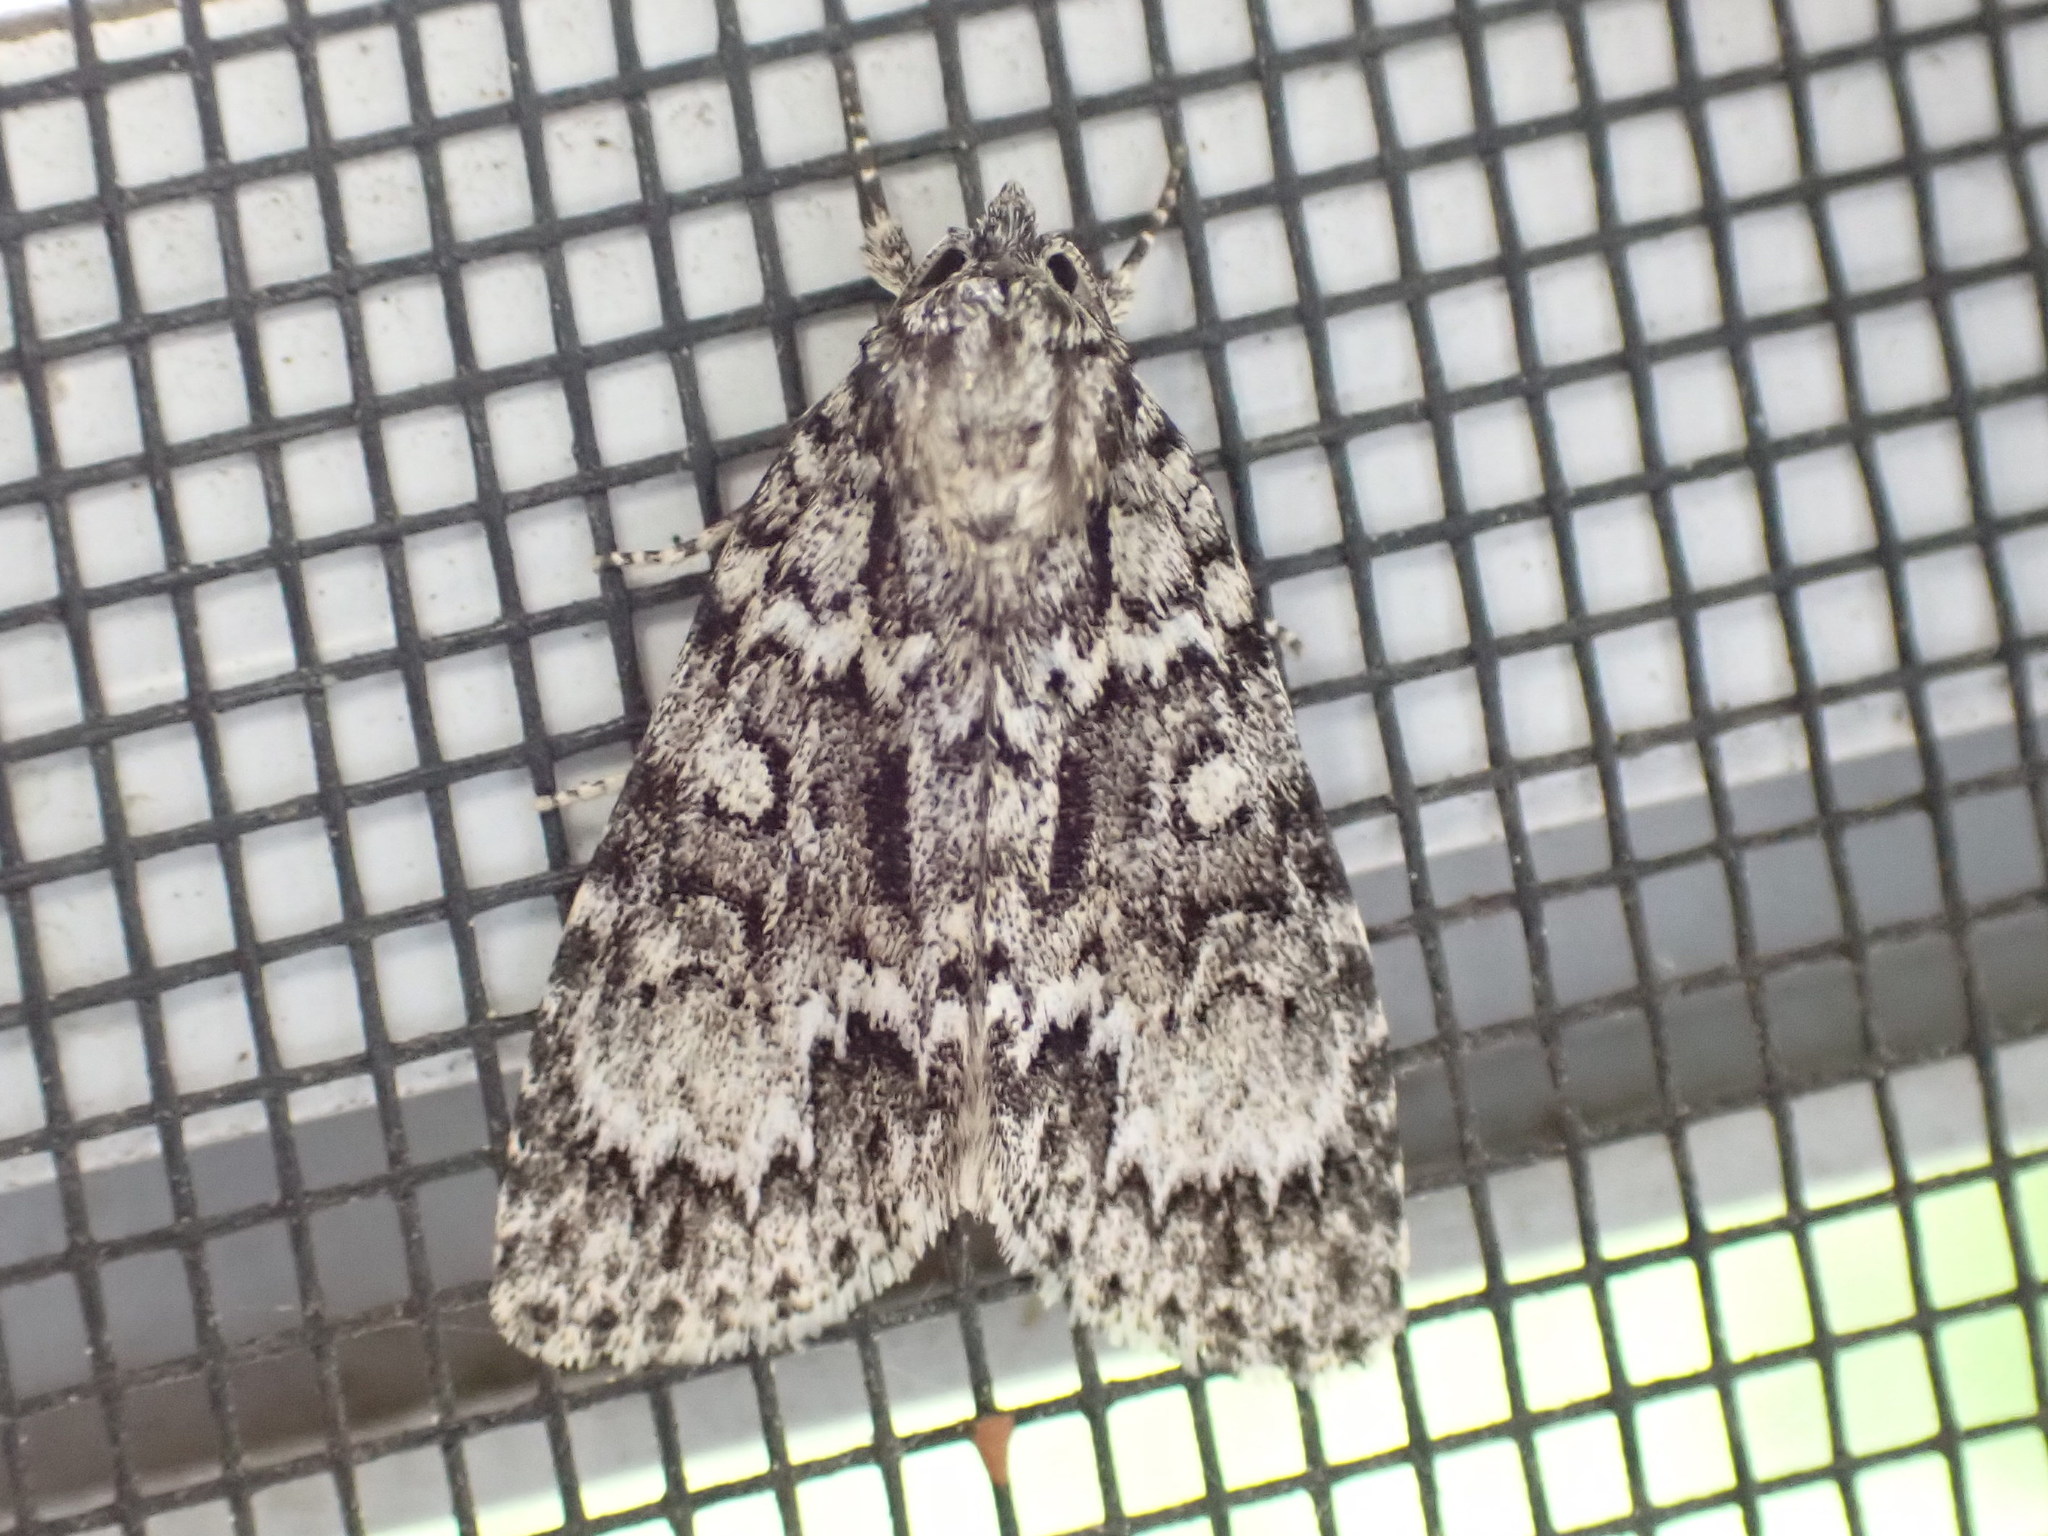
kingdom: Animalia
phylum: Arthropoda
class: Insecta
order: Lepidoptera
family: Noctuidae
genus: Acronicta
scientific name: Acronicta fragilis
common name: Fragile dagger
